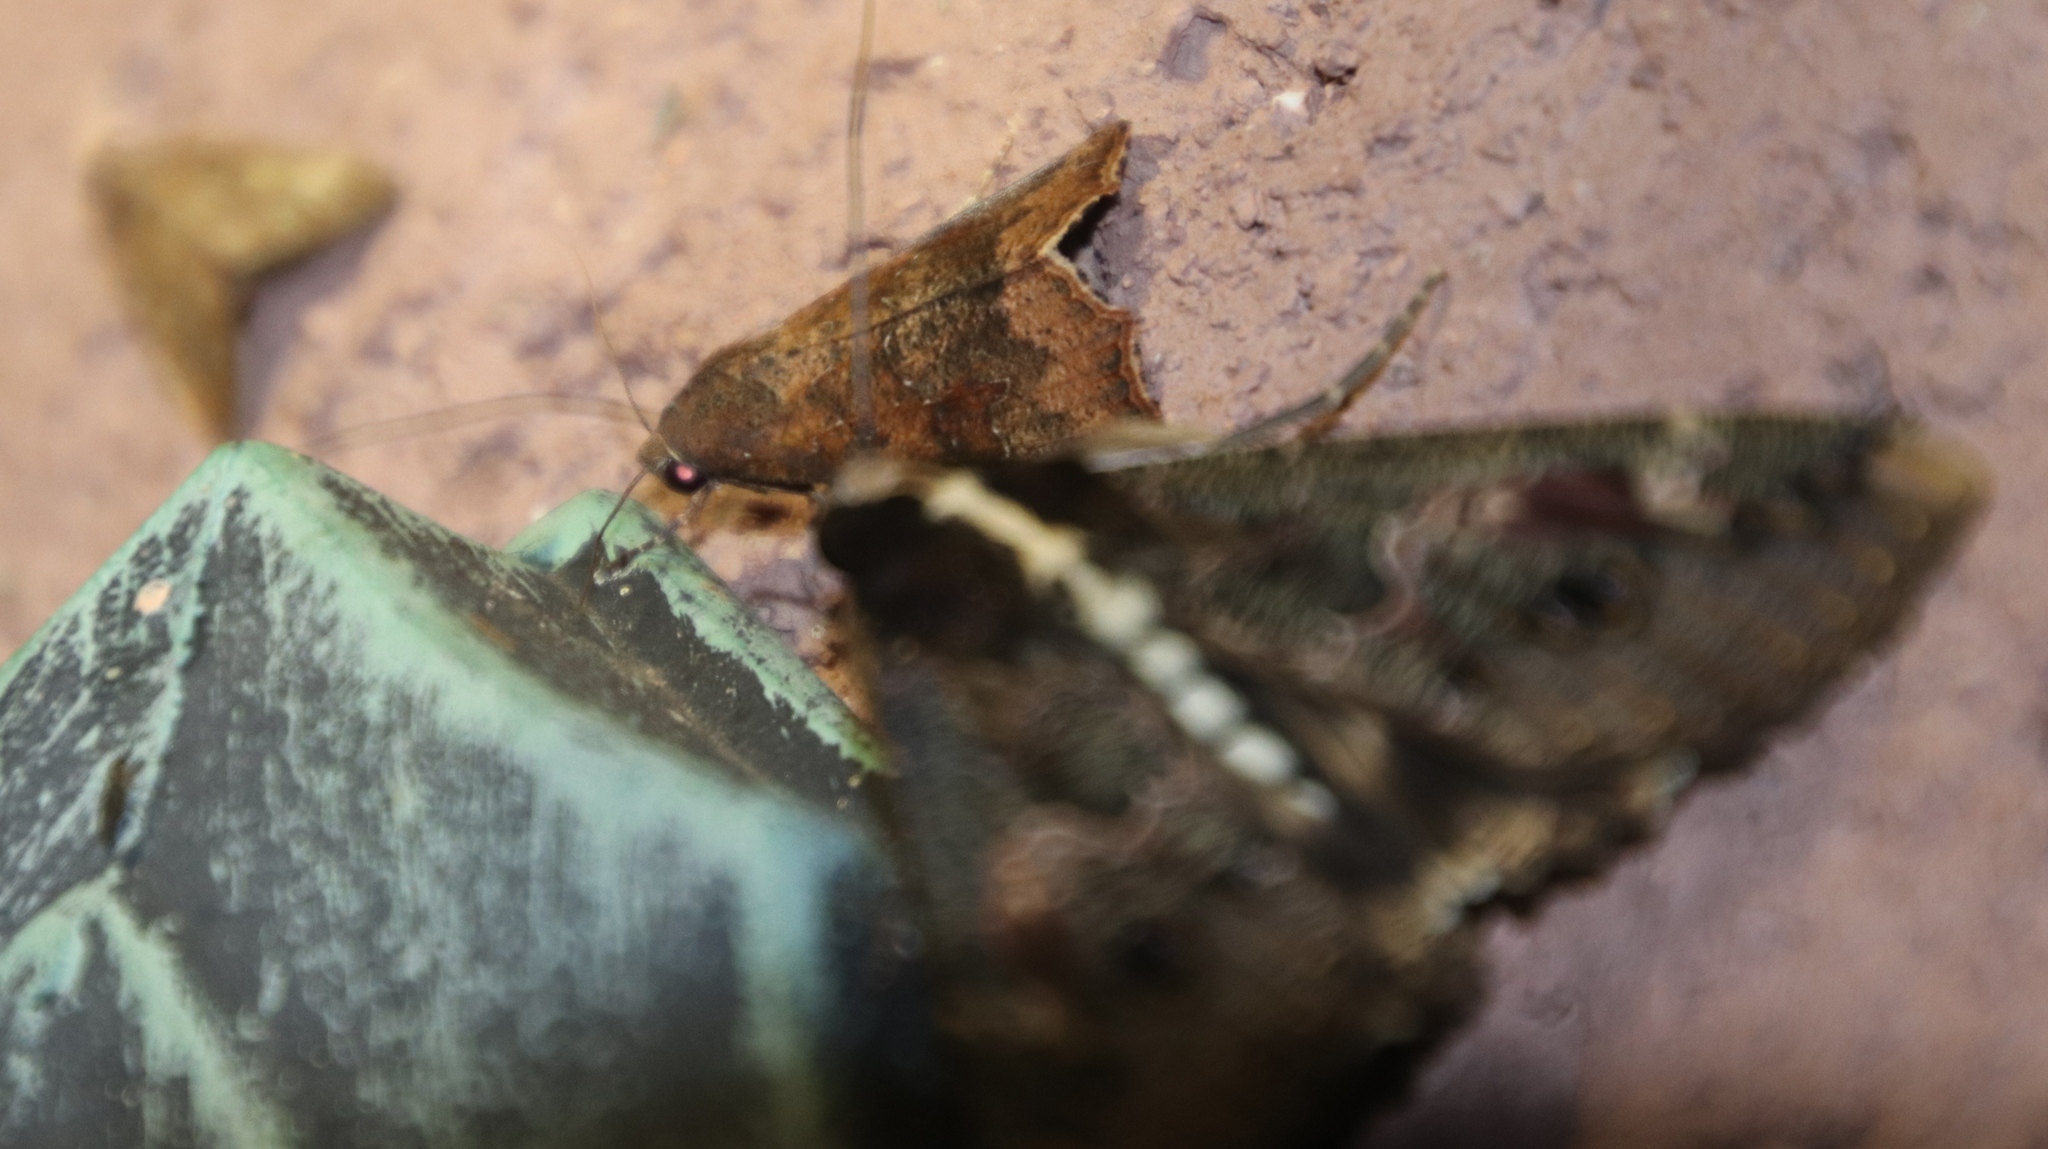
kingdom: Animalia
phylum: Arthropoda
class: Insecta
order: Lepidoptera
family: Erebidae
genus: Sphingomorpha
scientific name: Sphingomorpha chlorea
